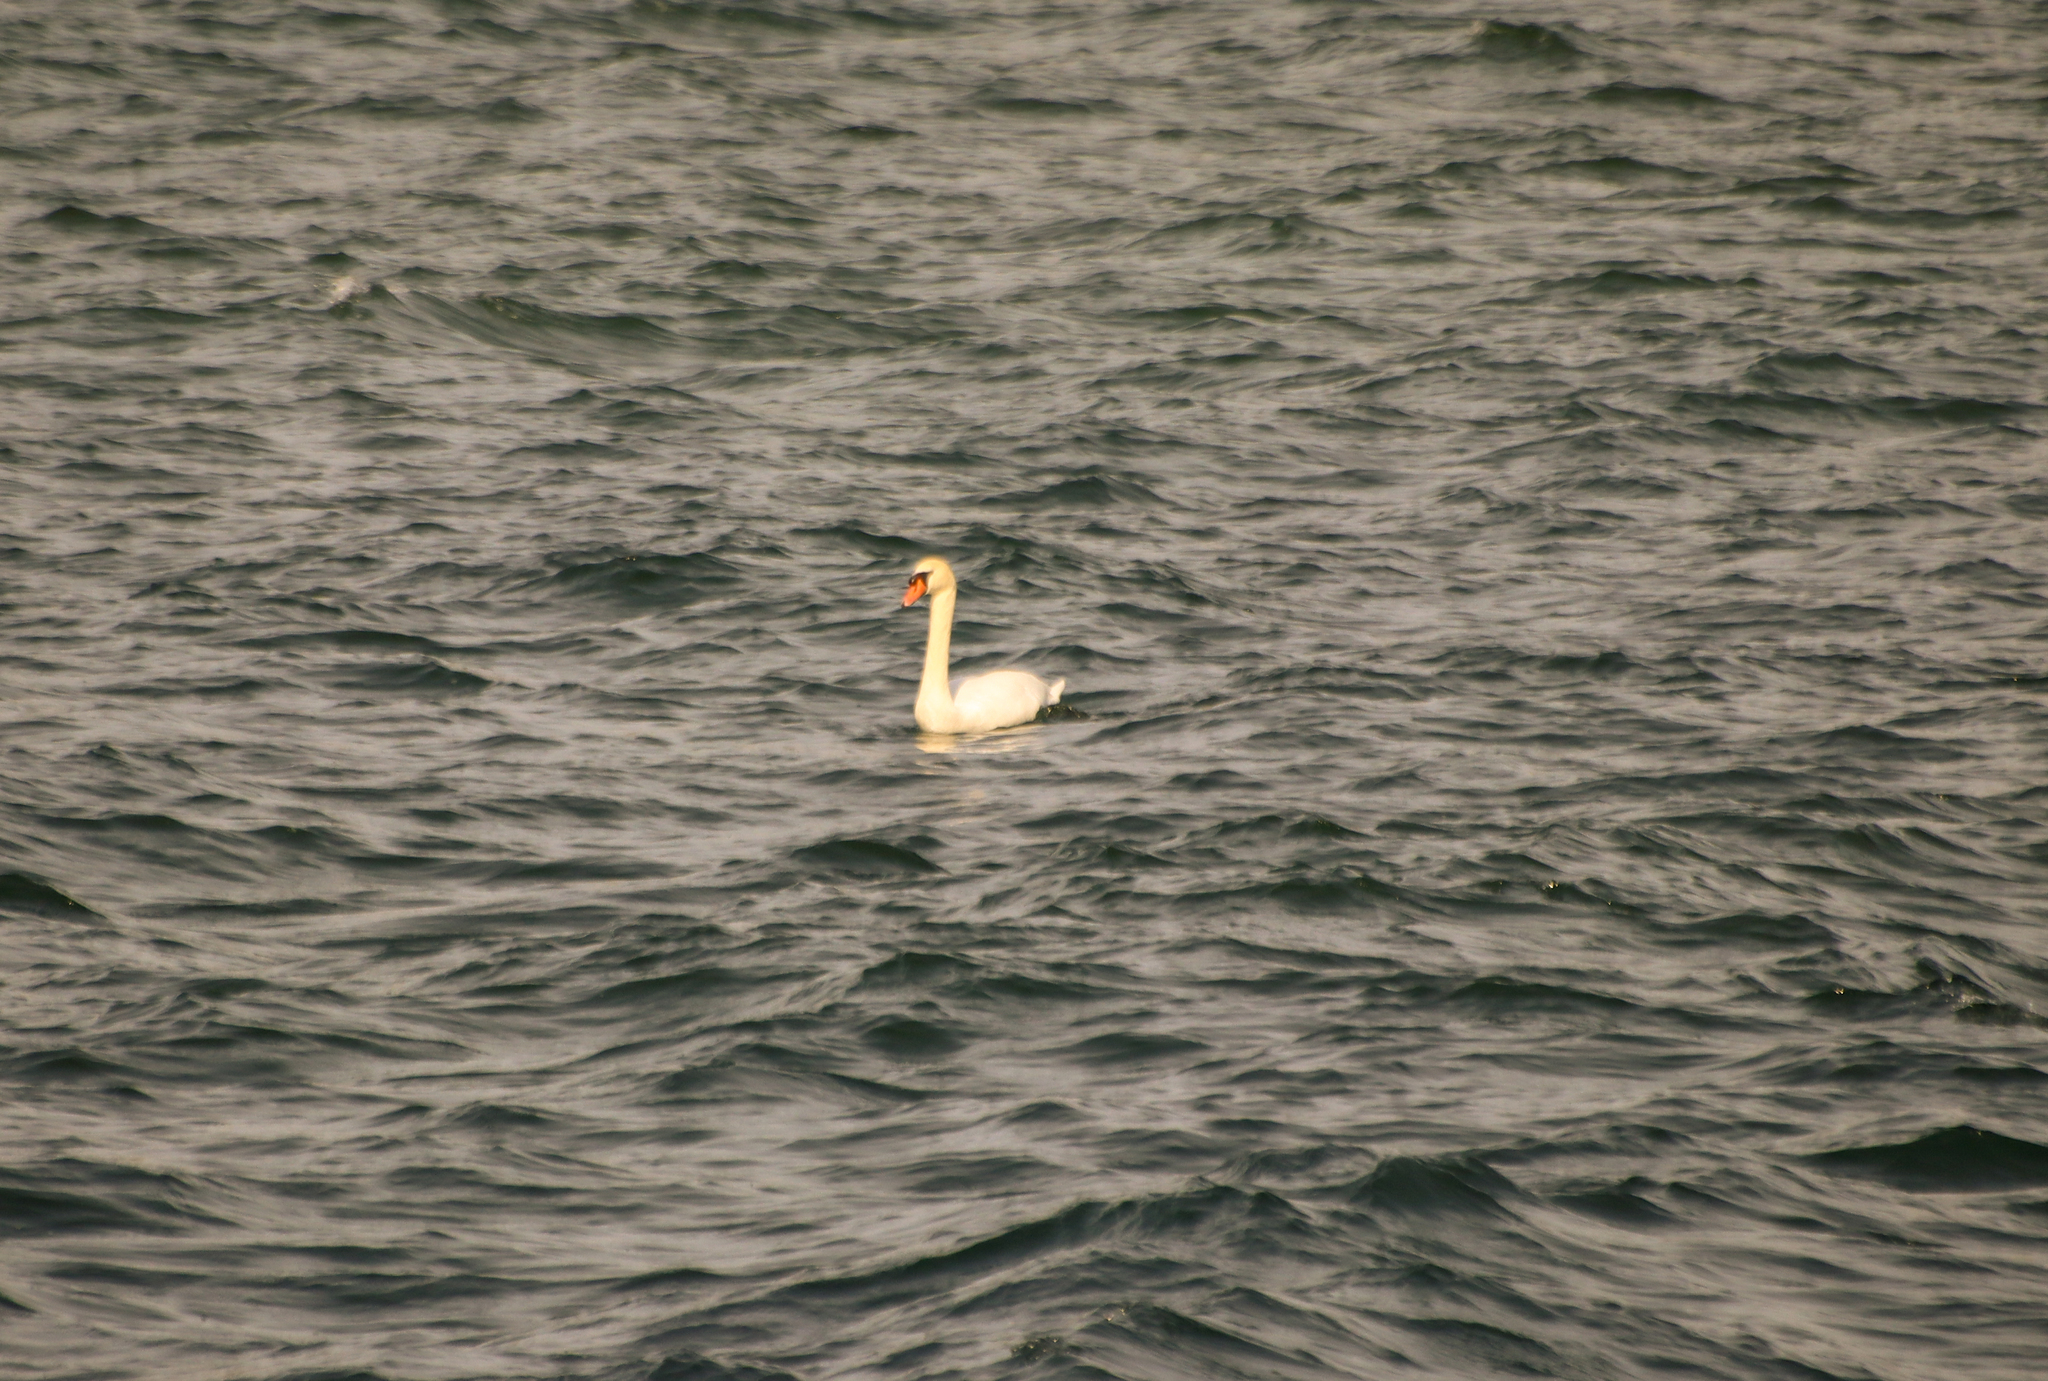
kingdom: Animalia
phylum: Chordata
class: Aves
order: Anseriformes
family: Anatidae
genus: Cygnus
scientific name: Cygnus olor
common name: Mute swan
